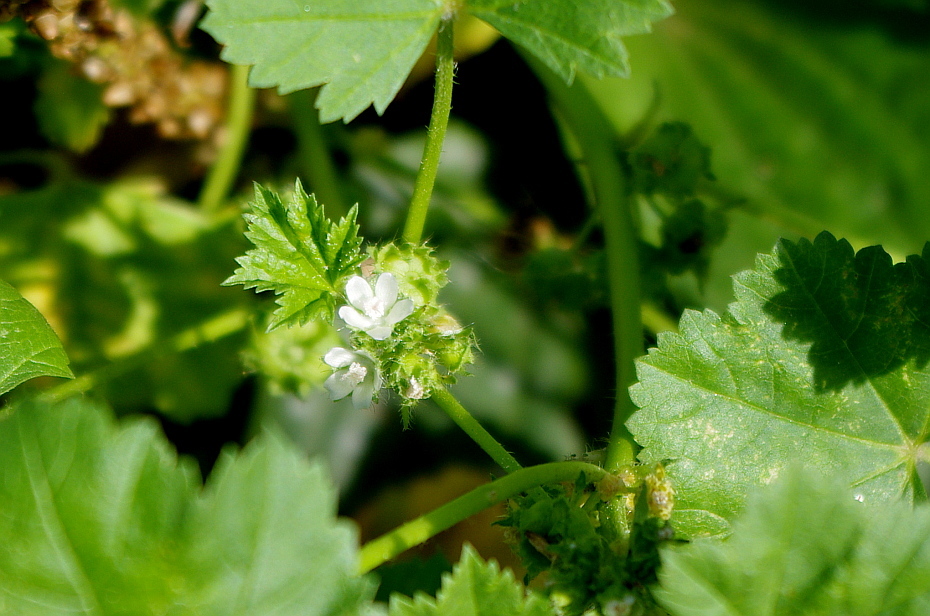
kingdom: Plantae
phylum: Tracheophyta
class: Magnoliopsida
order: Malvales
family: Malvaceae
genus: Malva
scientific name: Malva pusilla
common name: Small mallow
